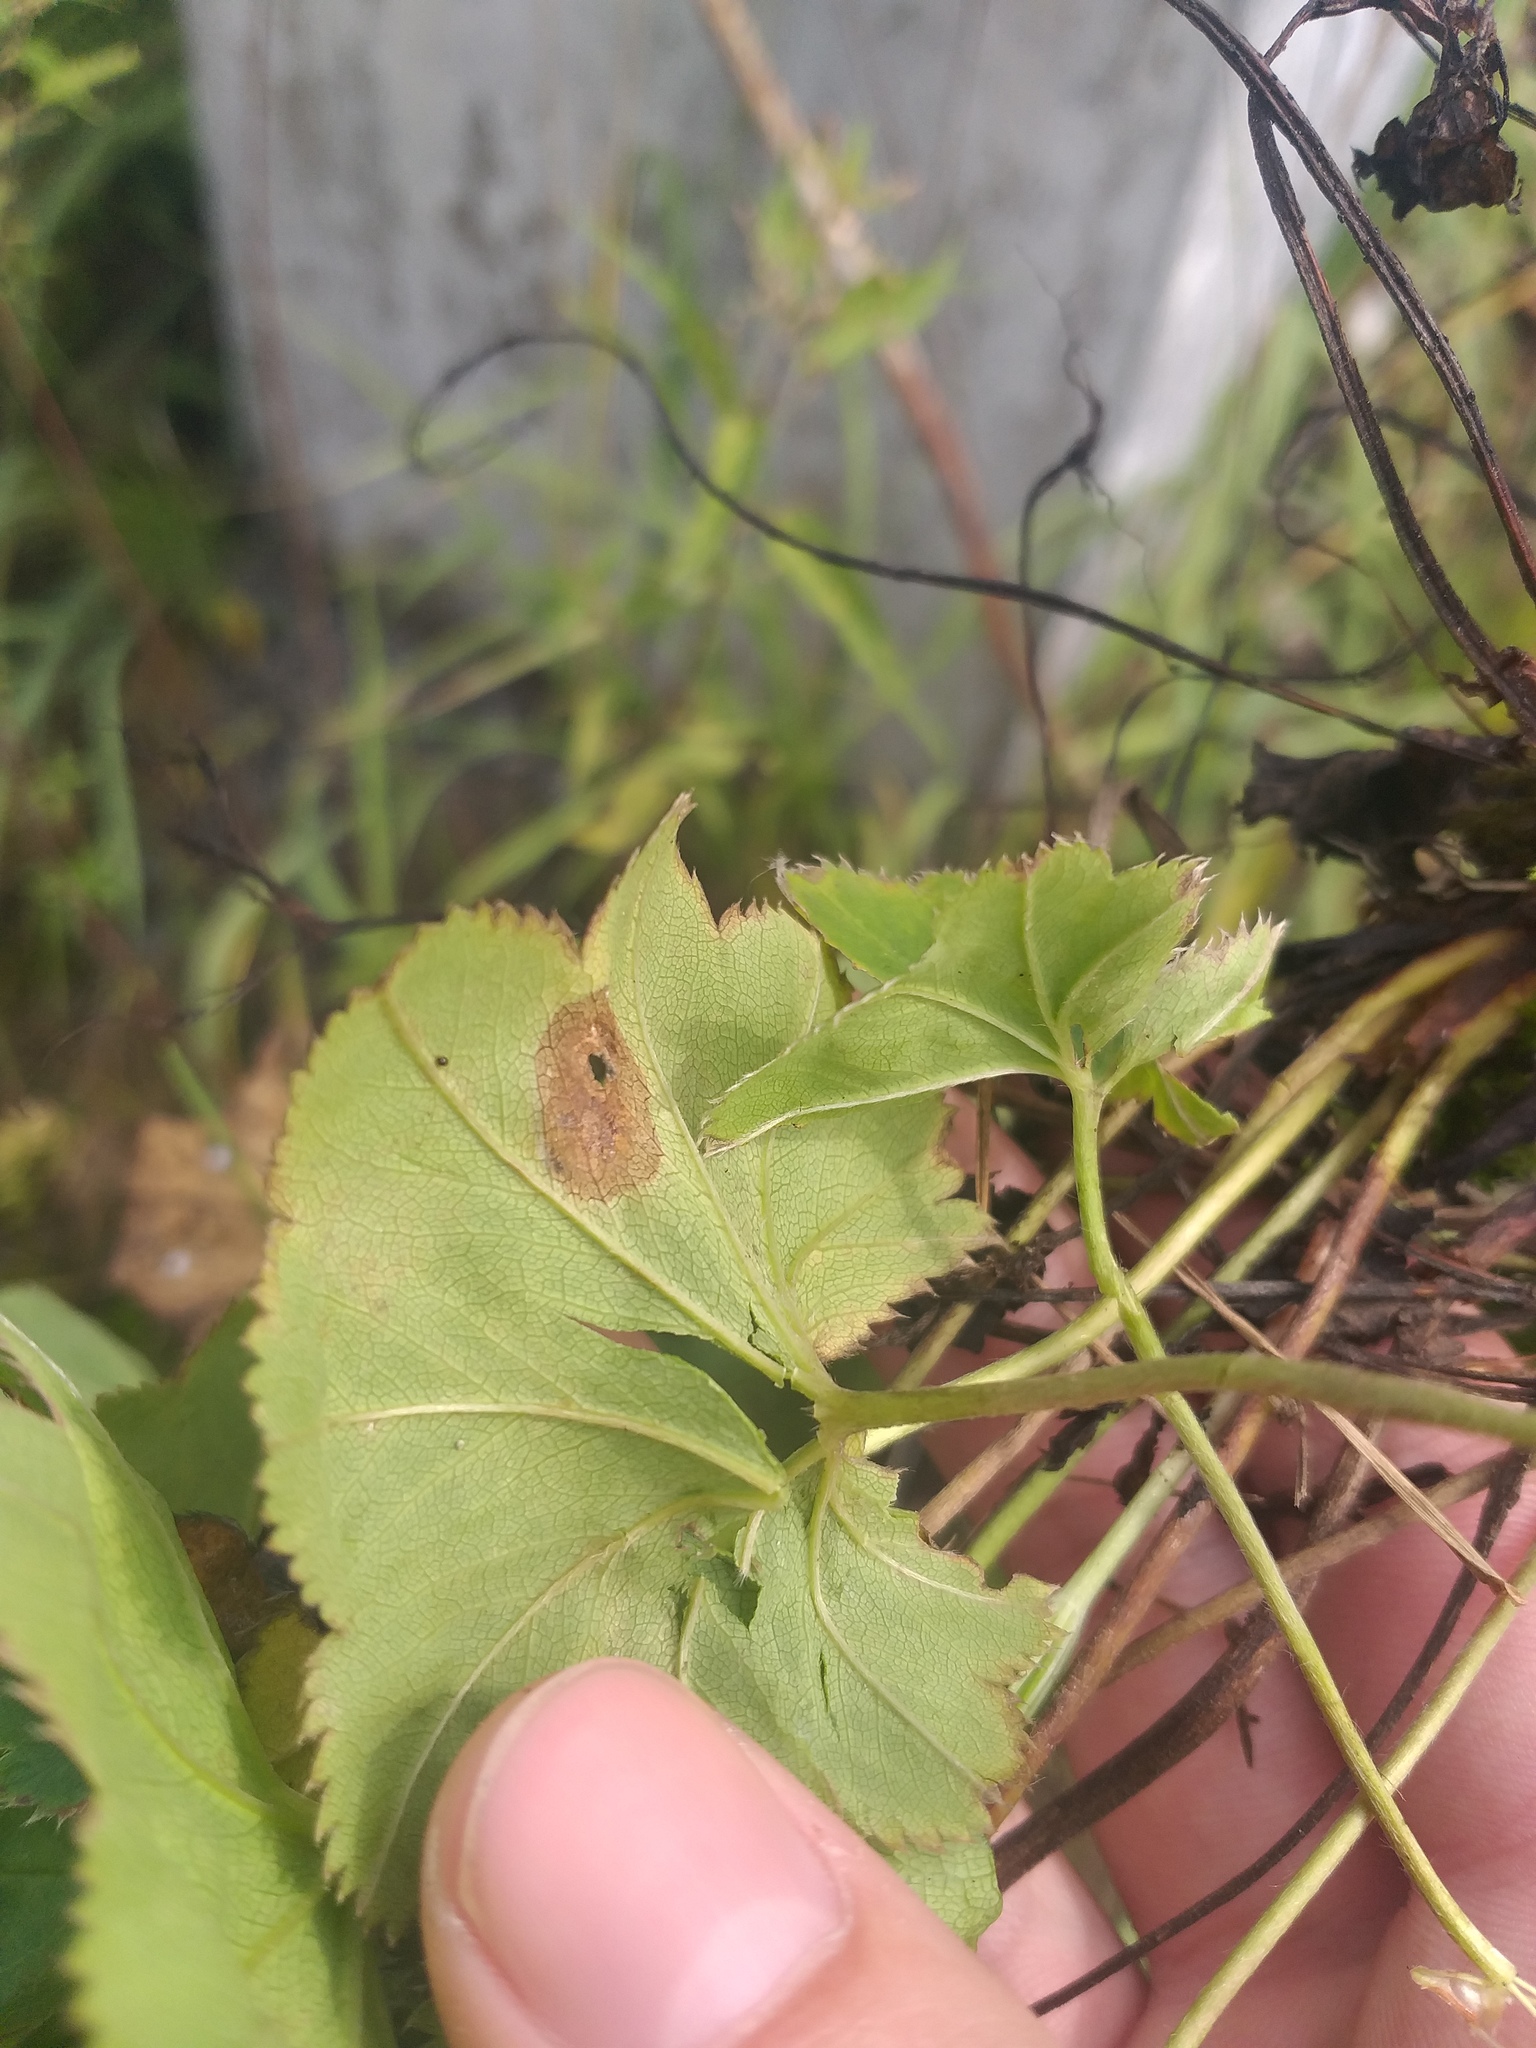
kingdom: Plantae
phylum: Tracheophyta
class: Magnoliopsida
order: Rosales
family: Rosaceae
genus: Alchemilla
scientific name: Alchemilla baltica
